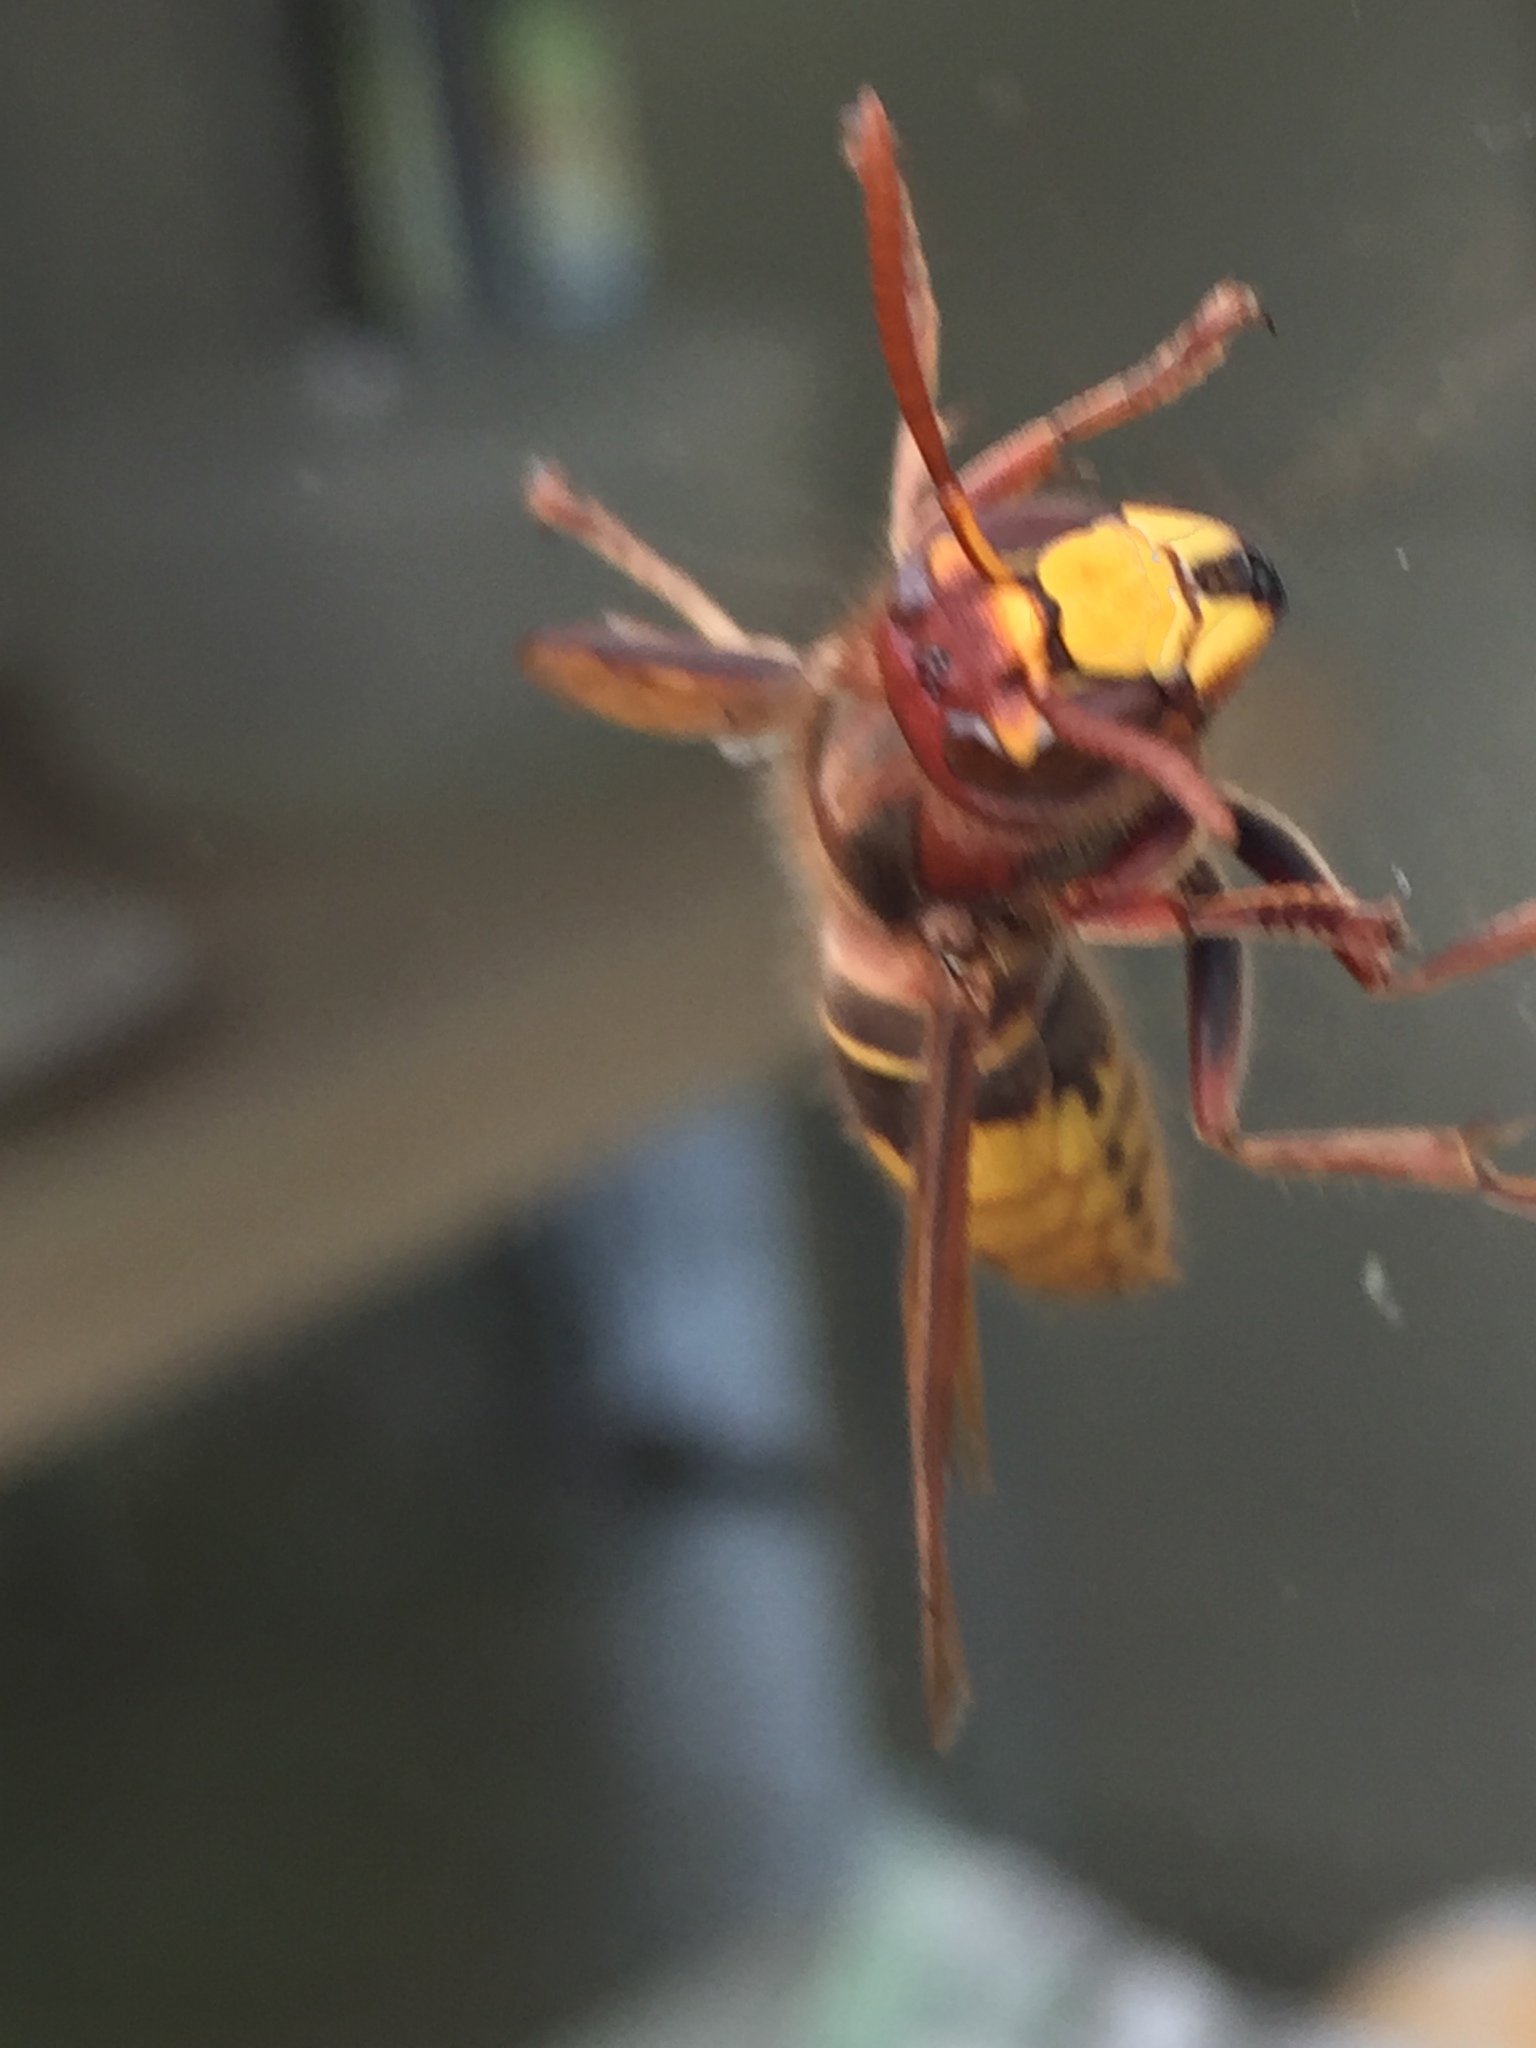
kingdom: Animalia
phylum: Arthropoda
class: Insecta
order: Hymenoptera
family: Vespidae
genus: Vespa
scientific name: Vespa crabro
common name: Hornet
